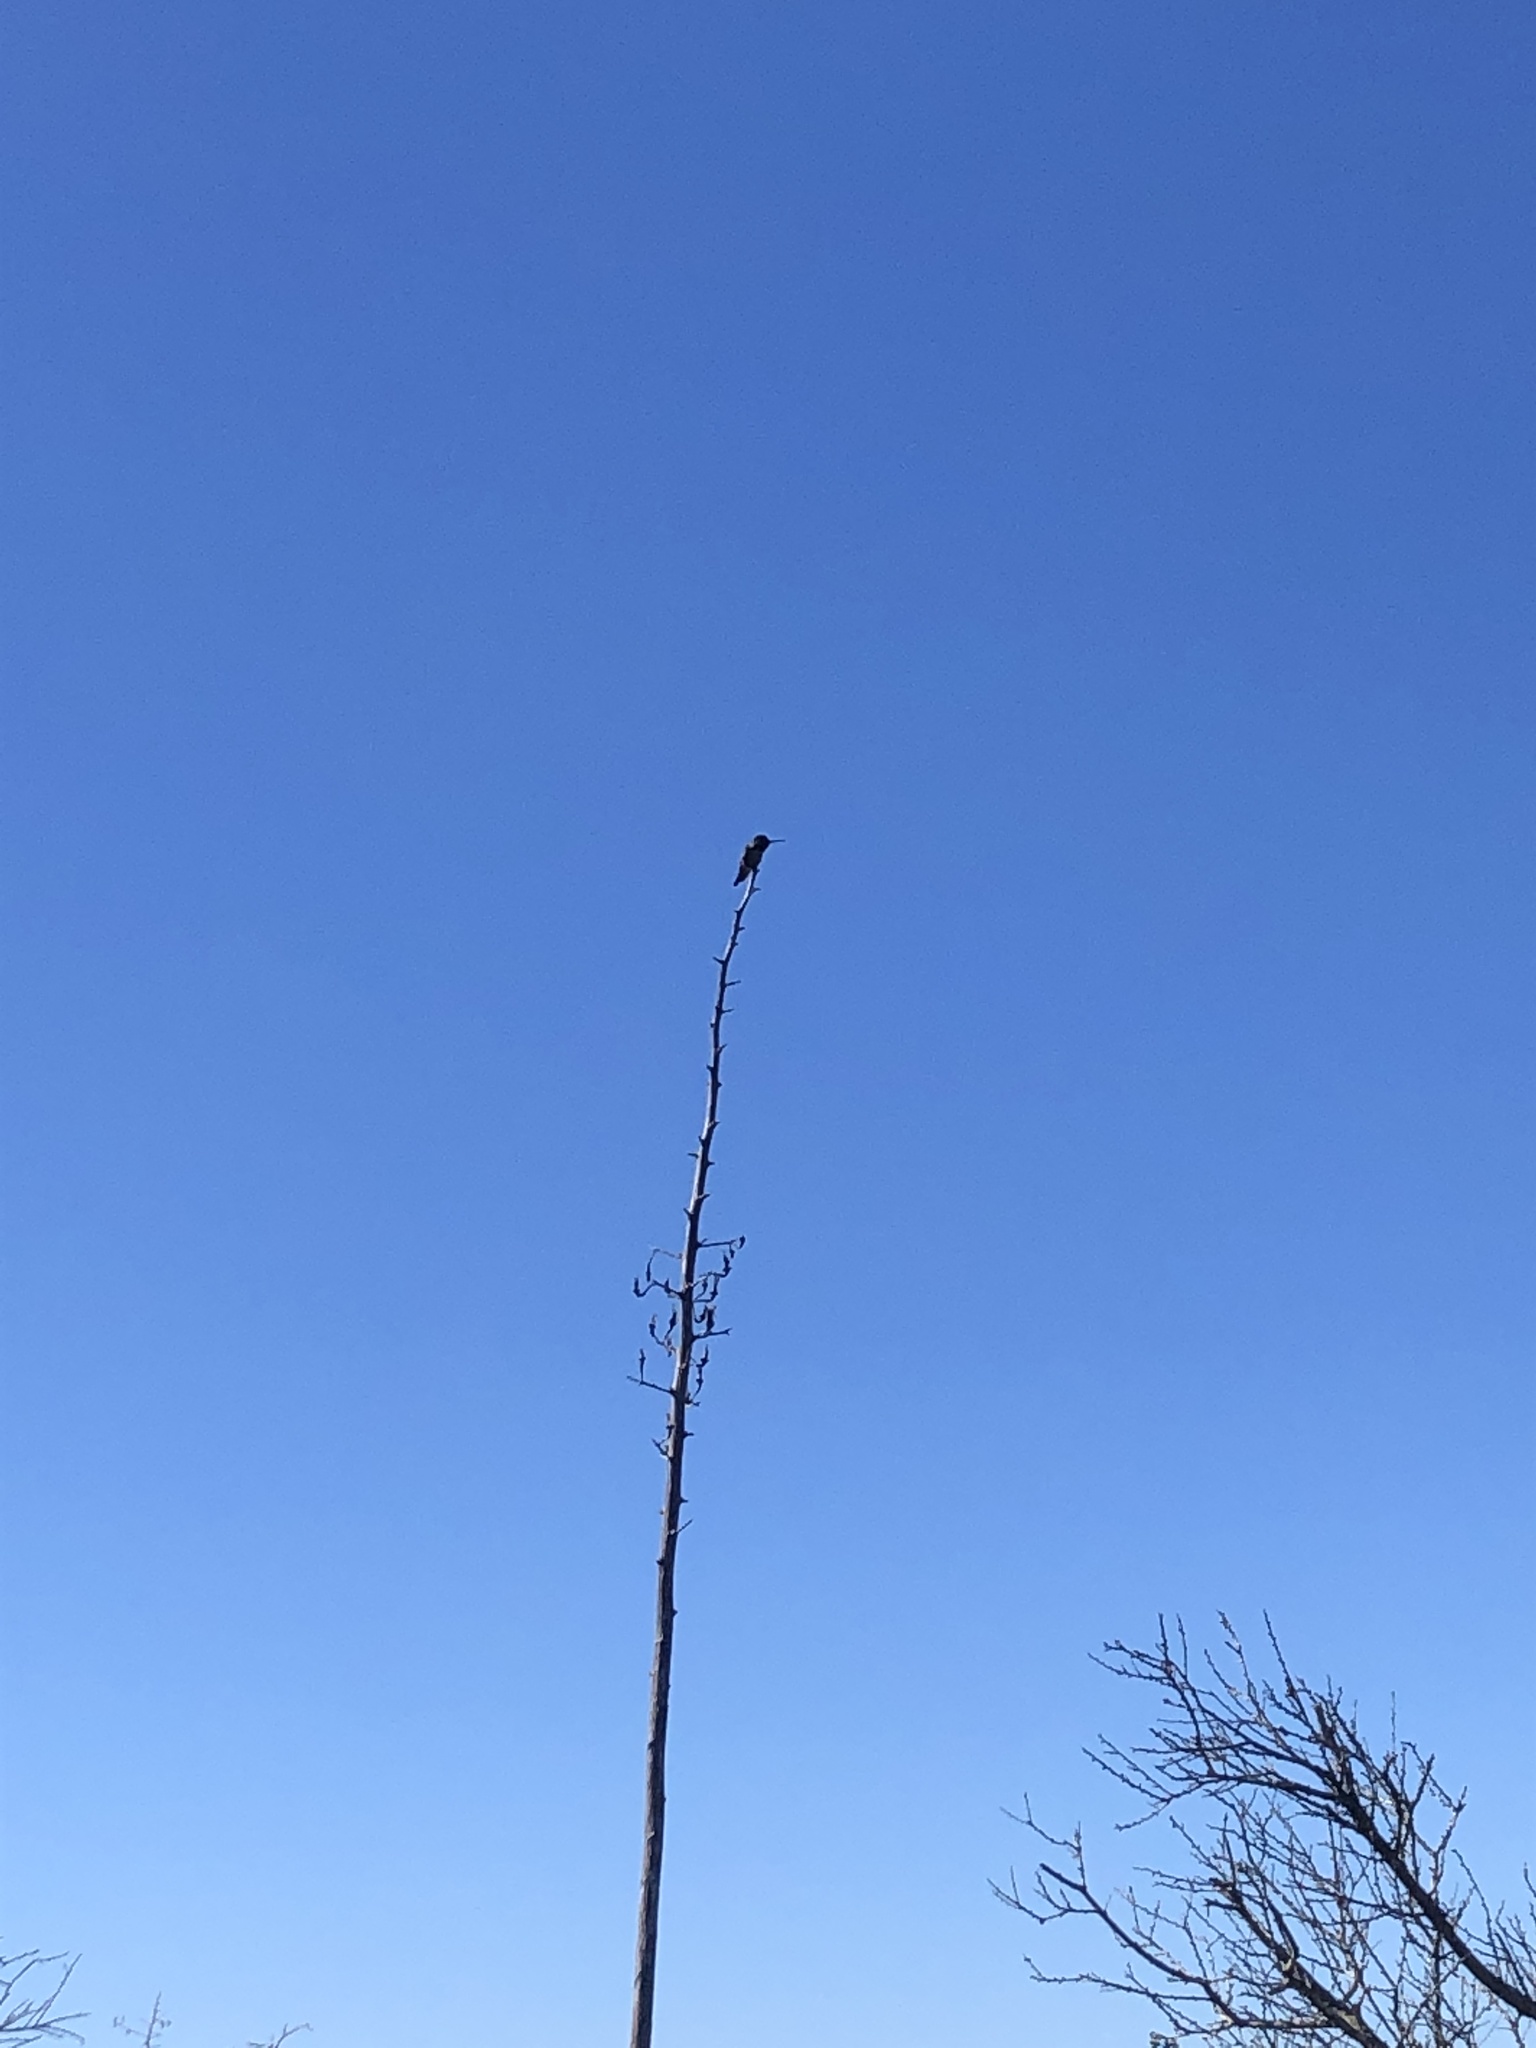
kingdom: Animalia
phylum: Chordata
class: Aves
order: Apodiformes
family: Trochilidae
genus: Calypte
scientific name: Calypte anna
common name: Anna's hummingbird
